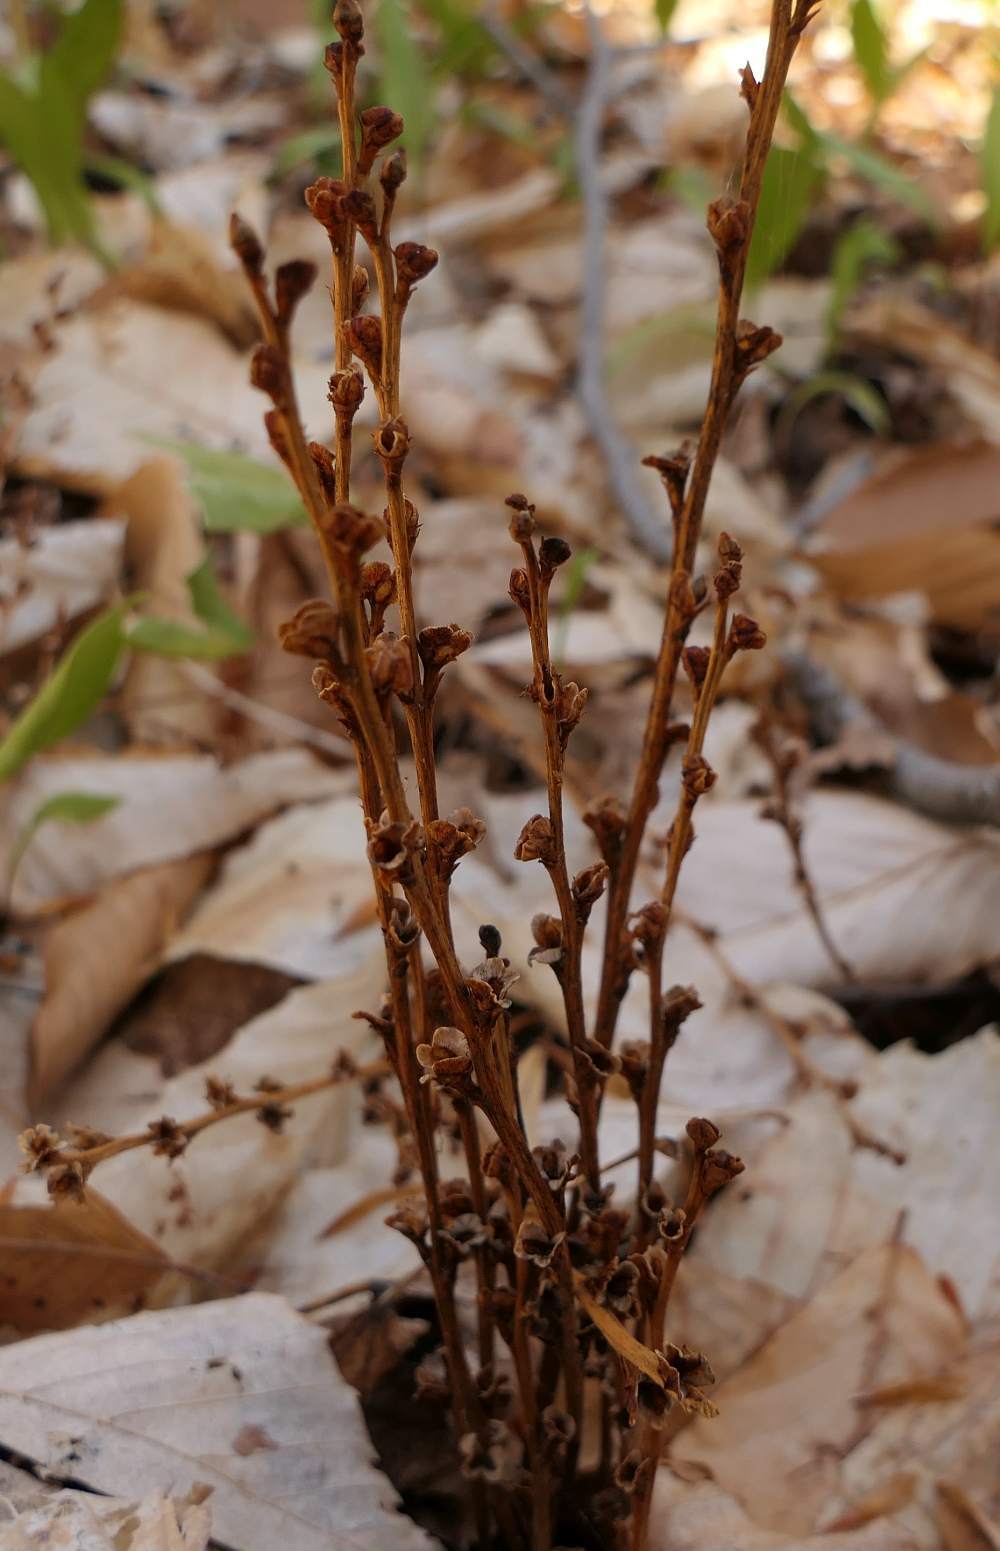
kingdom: Plantae
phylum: Tracheophyta
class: Magnoliopsida
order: Lamiales
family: Orobanchaceae
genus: Epifagus
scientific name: Epifagus virginiana
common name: Beechdrops
